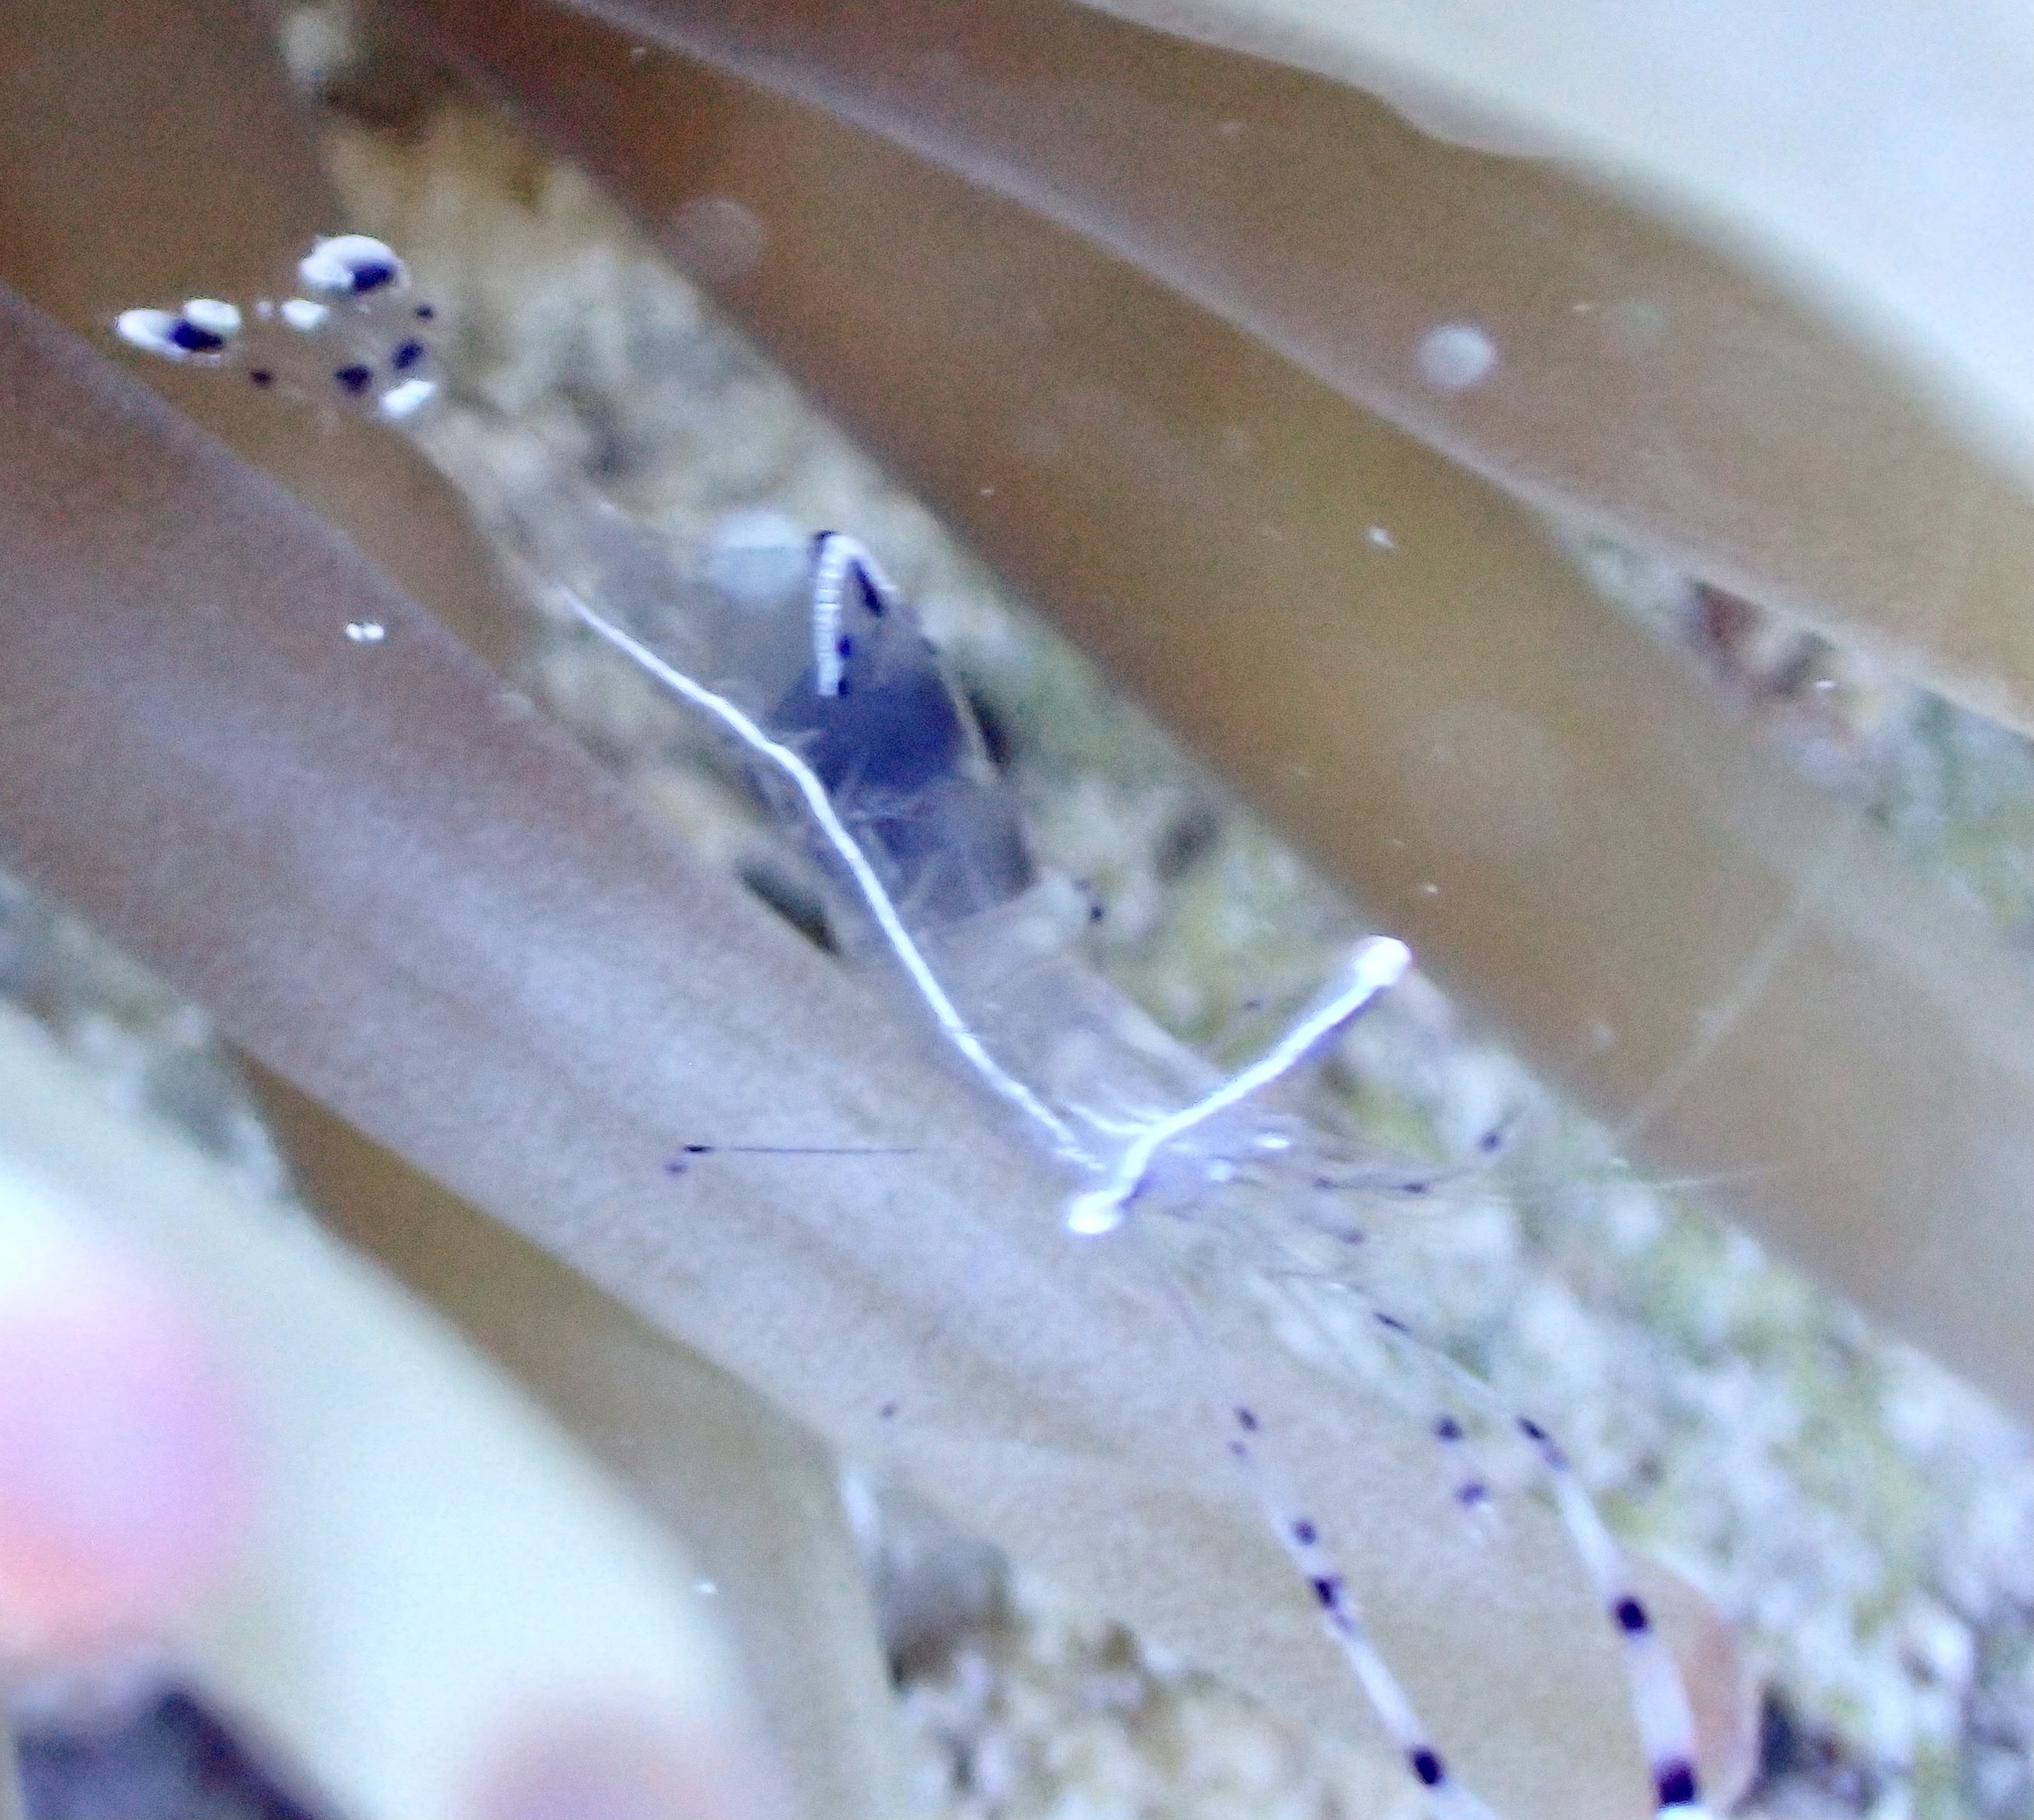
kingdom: Animalia
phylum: Arthropoda
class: Malacostraca
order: Decapoda
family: Palaemonidae
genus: Ancylomenes
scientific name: Ancylomenes longicarpus
